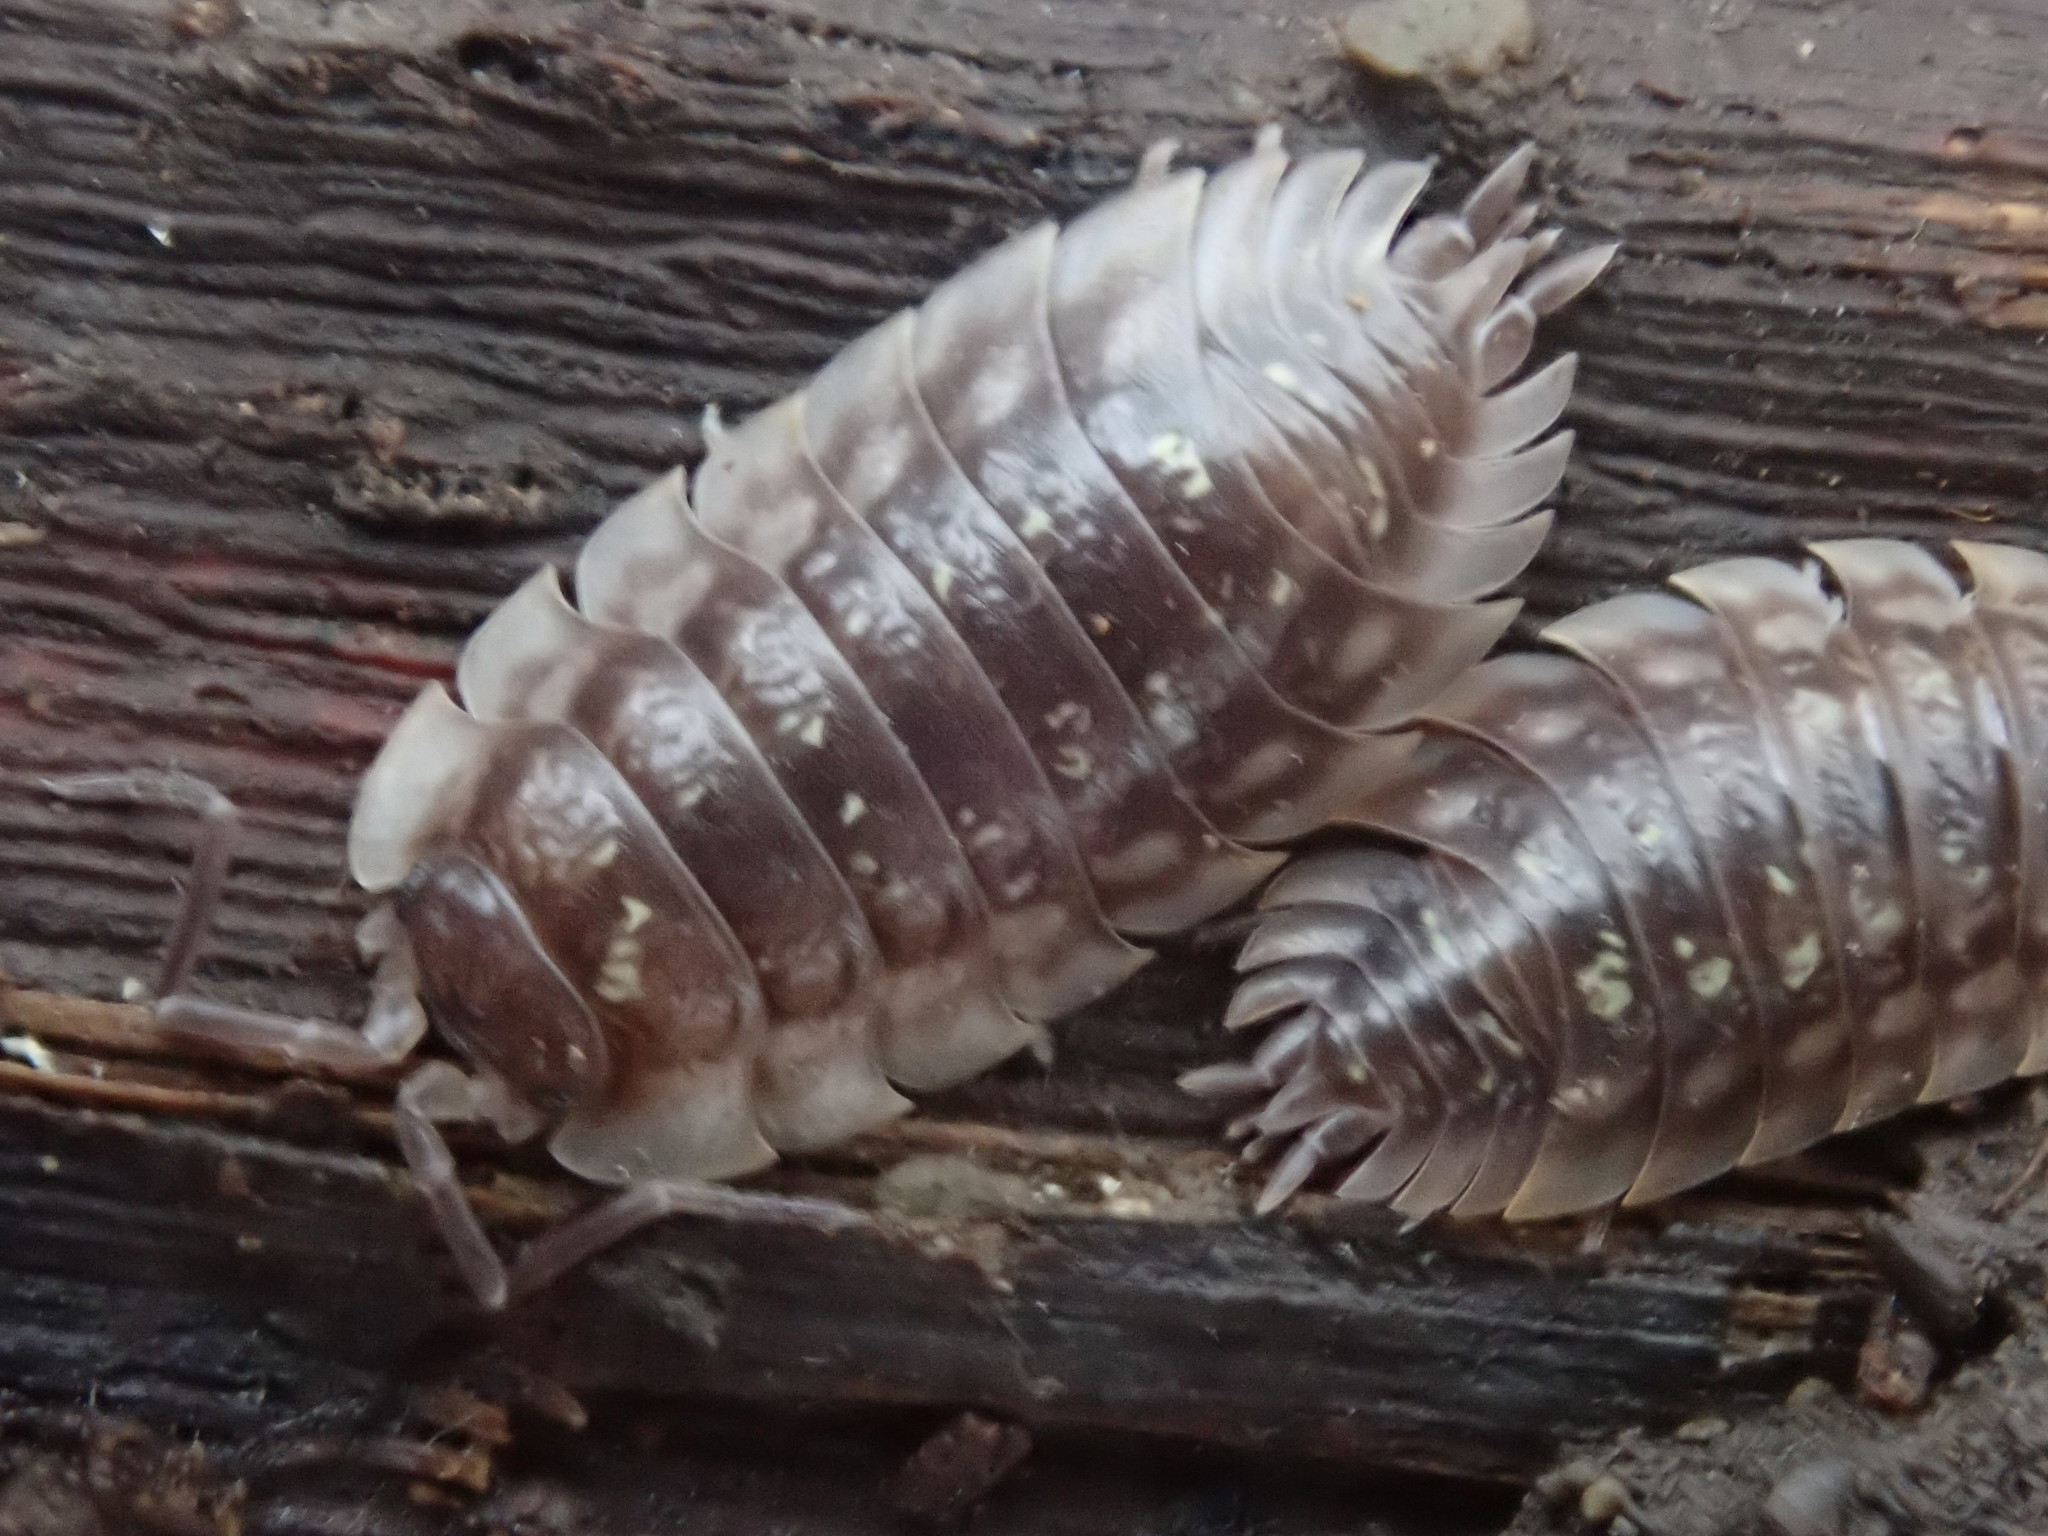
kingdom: Animalia
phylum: Arthropoda
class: Malacostraca
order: Isopoda
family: Oniscidae
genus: Oniscus
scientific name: Oniscus asellus
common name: Common shiny woodlouse
